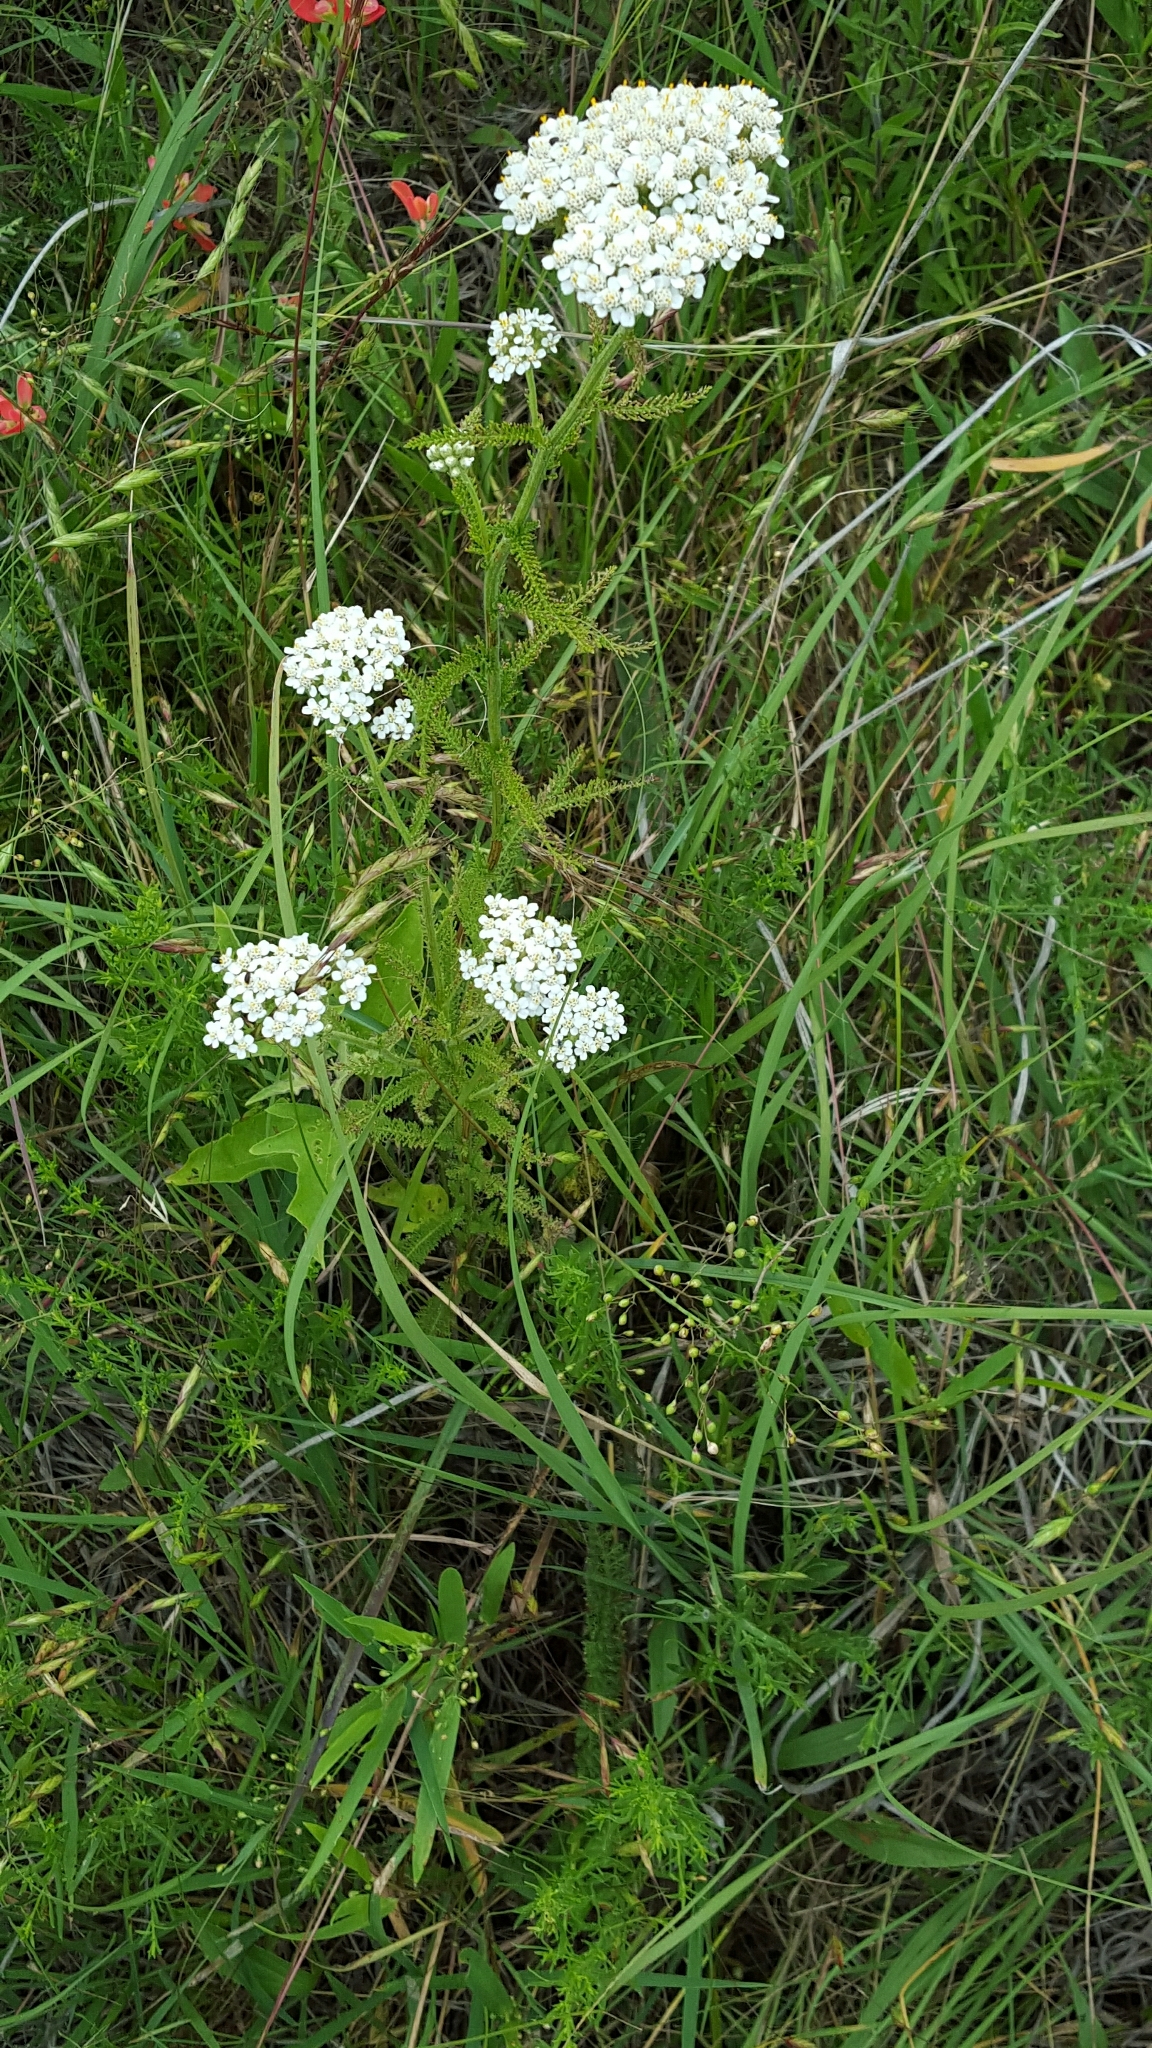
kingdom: Plantae
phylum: Tracheophyta
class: Magnoliopsida
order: Asterales
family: Asteraceae
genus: Achillea
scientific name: Achillea millefolium
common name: Yarrow
